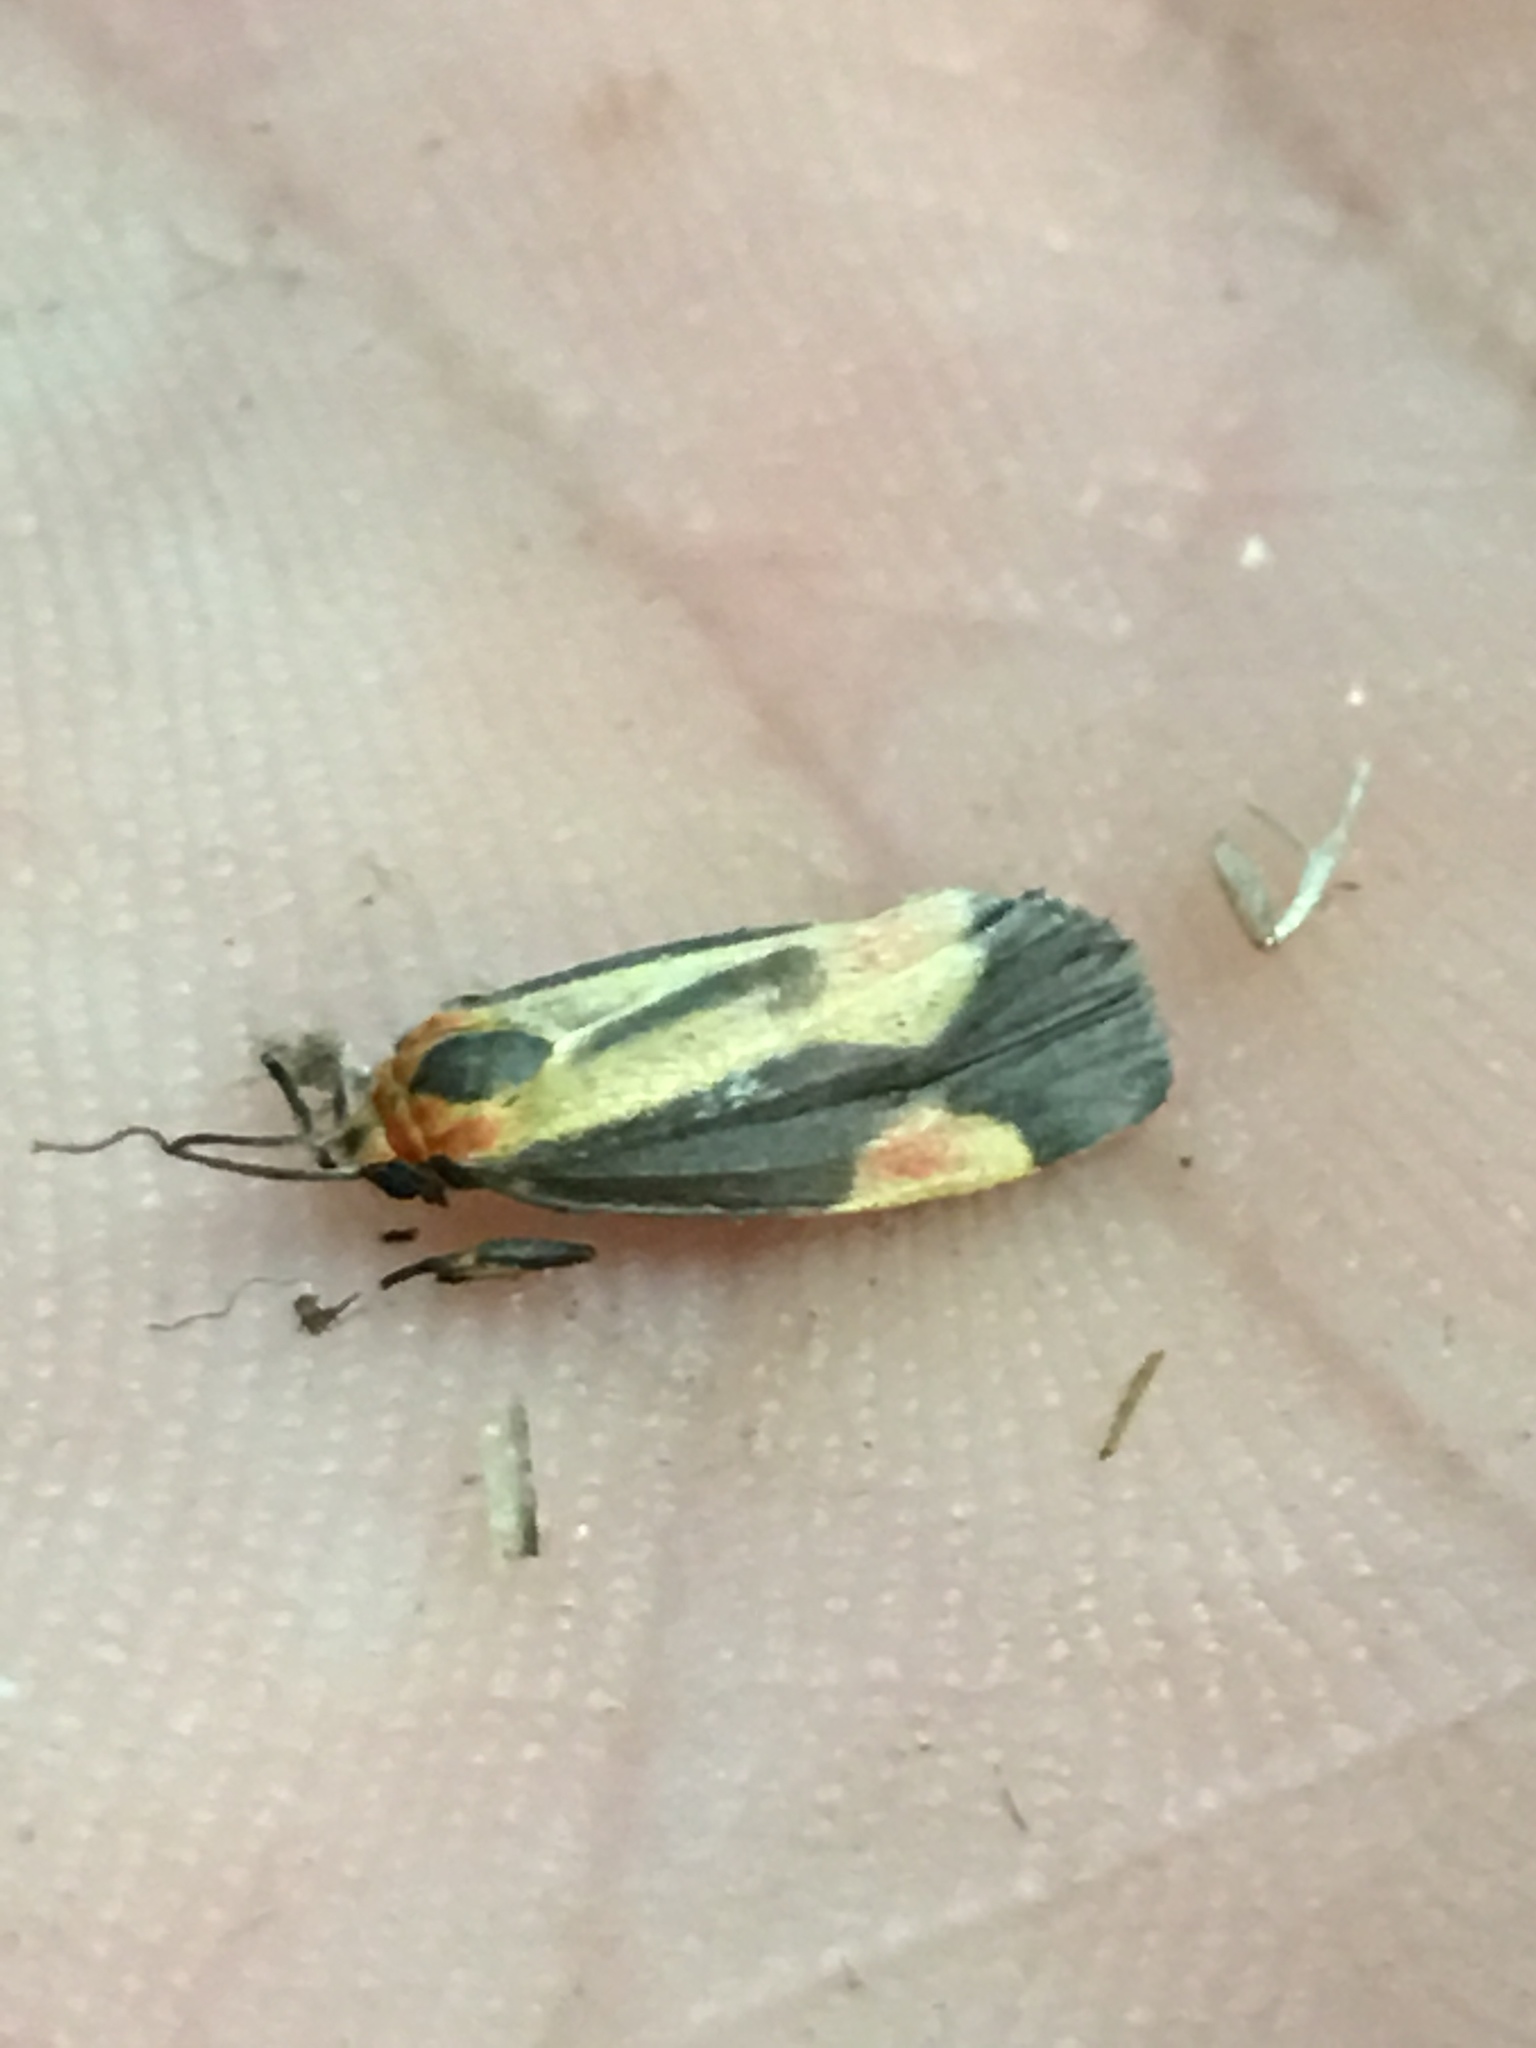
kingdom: Animalia
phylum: Arthropoda
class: Insecta
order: Lepidoptera
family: Erebidae
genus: Cisthene
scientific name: Cisthene packardii
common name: Packard's lichen moth
